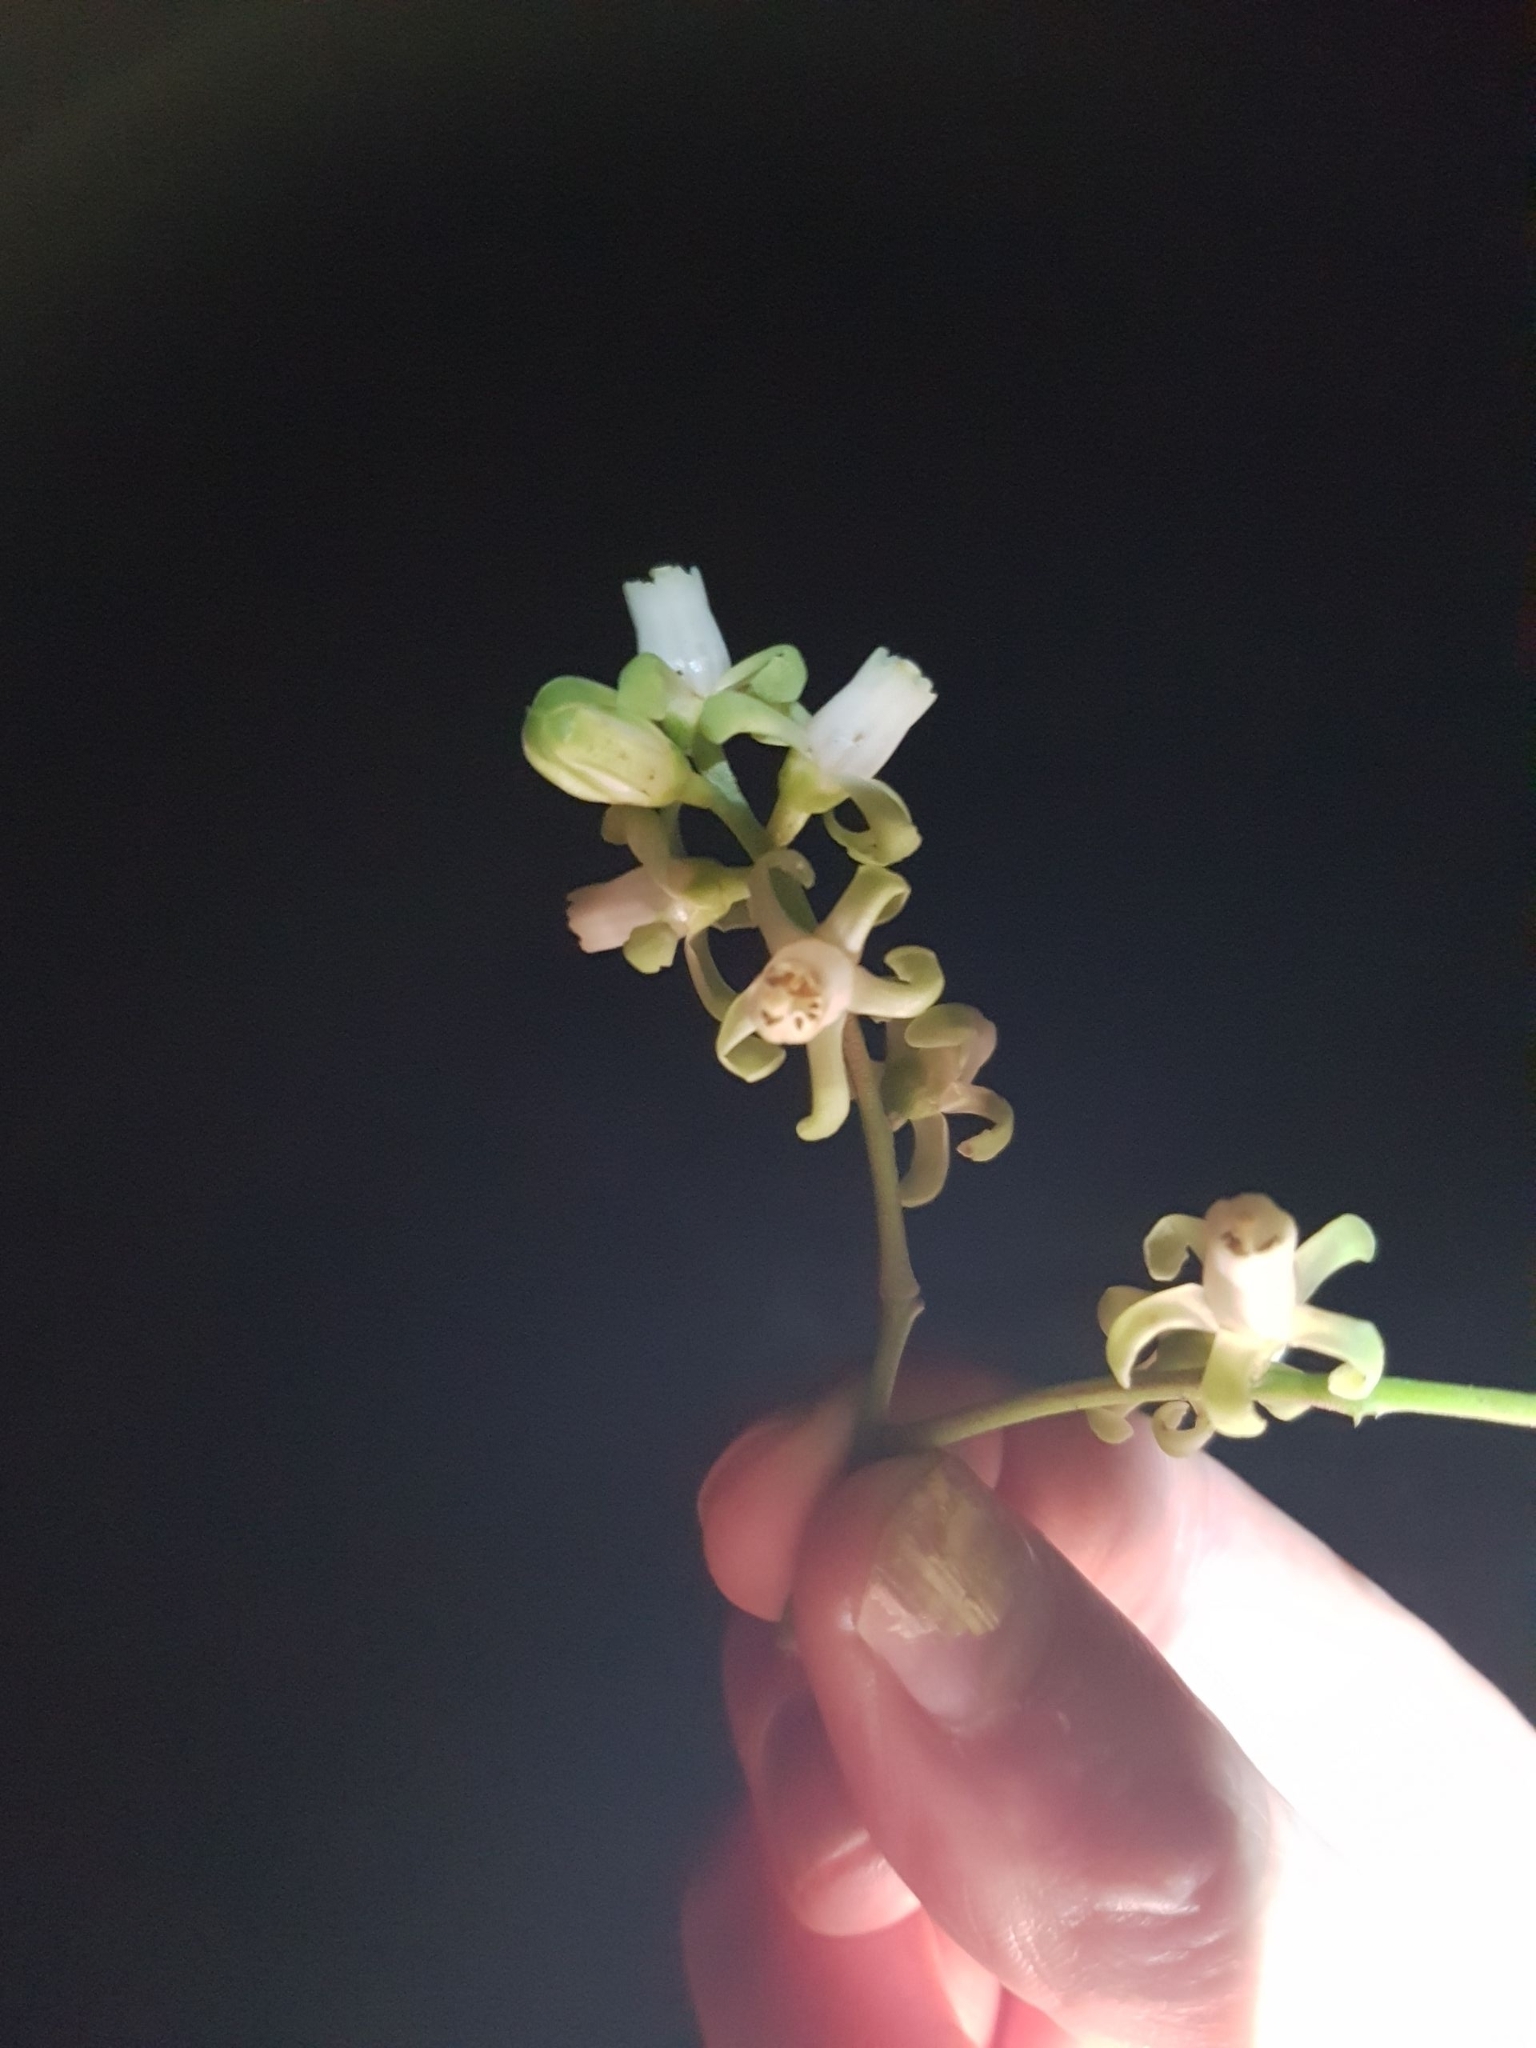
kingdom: Plantae
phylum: Tracheophyta
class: Magnoliopsida
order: Sapindales
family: Meliaceae
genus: Didymocheton
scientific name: Didymocheton spectabilis
